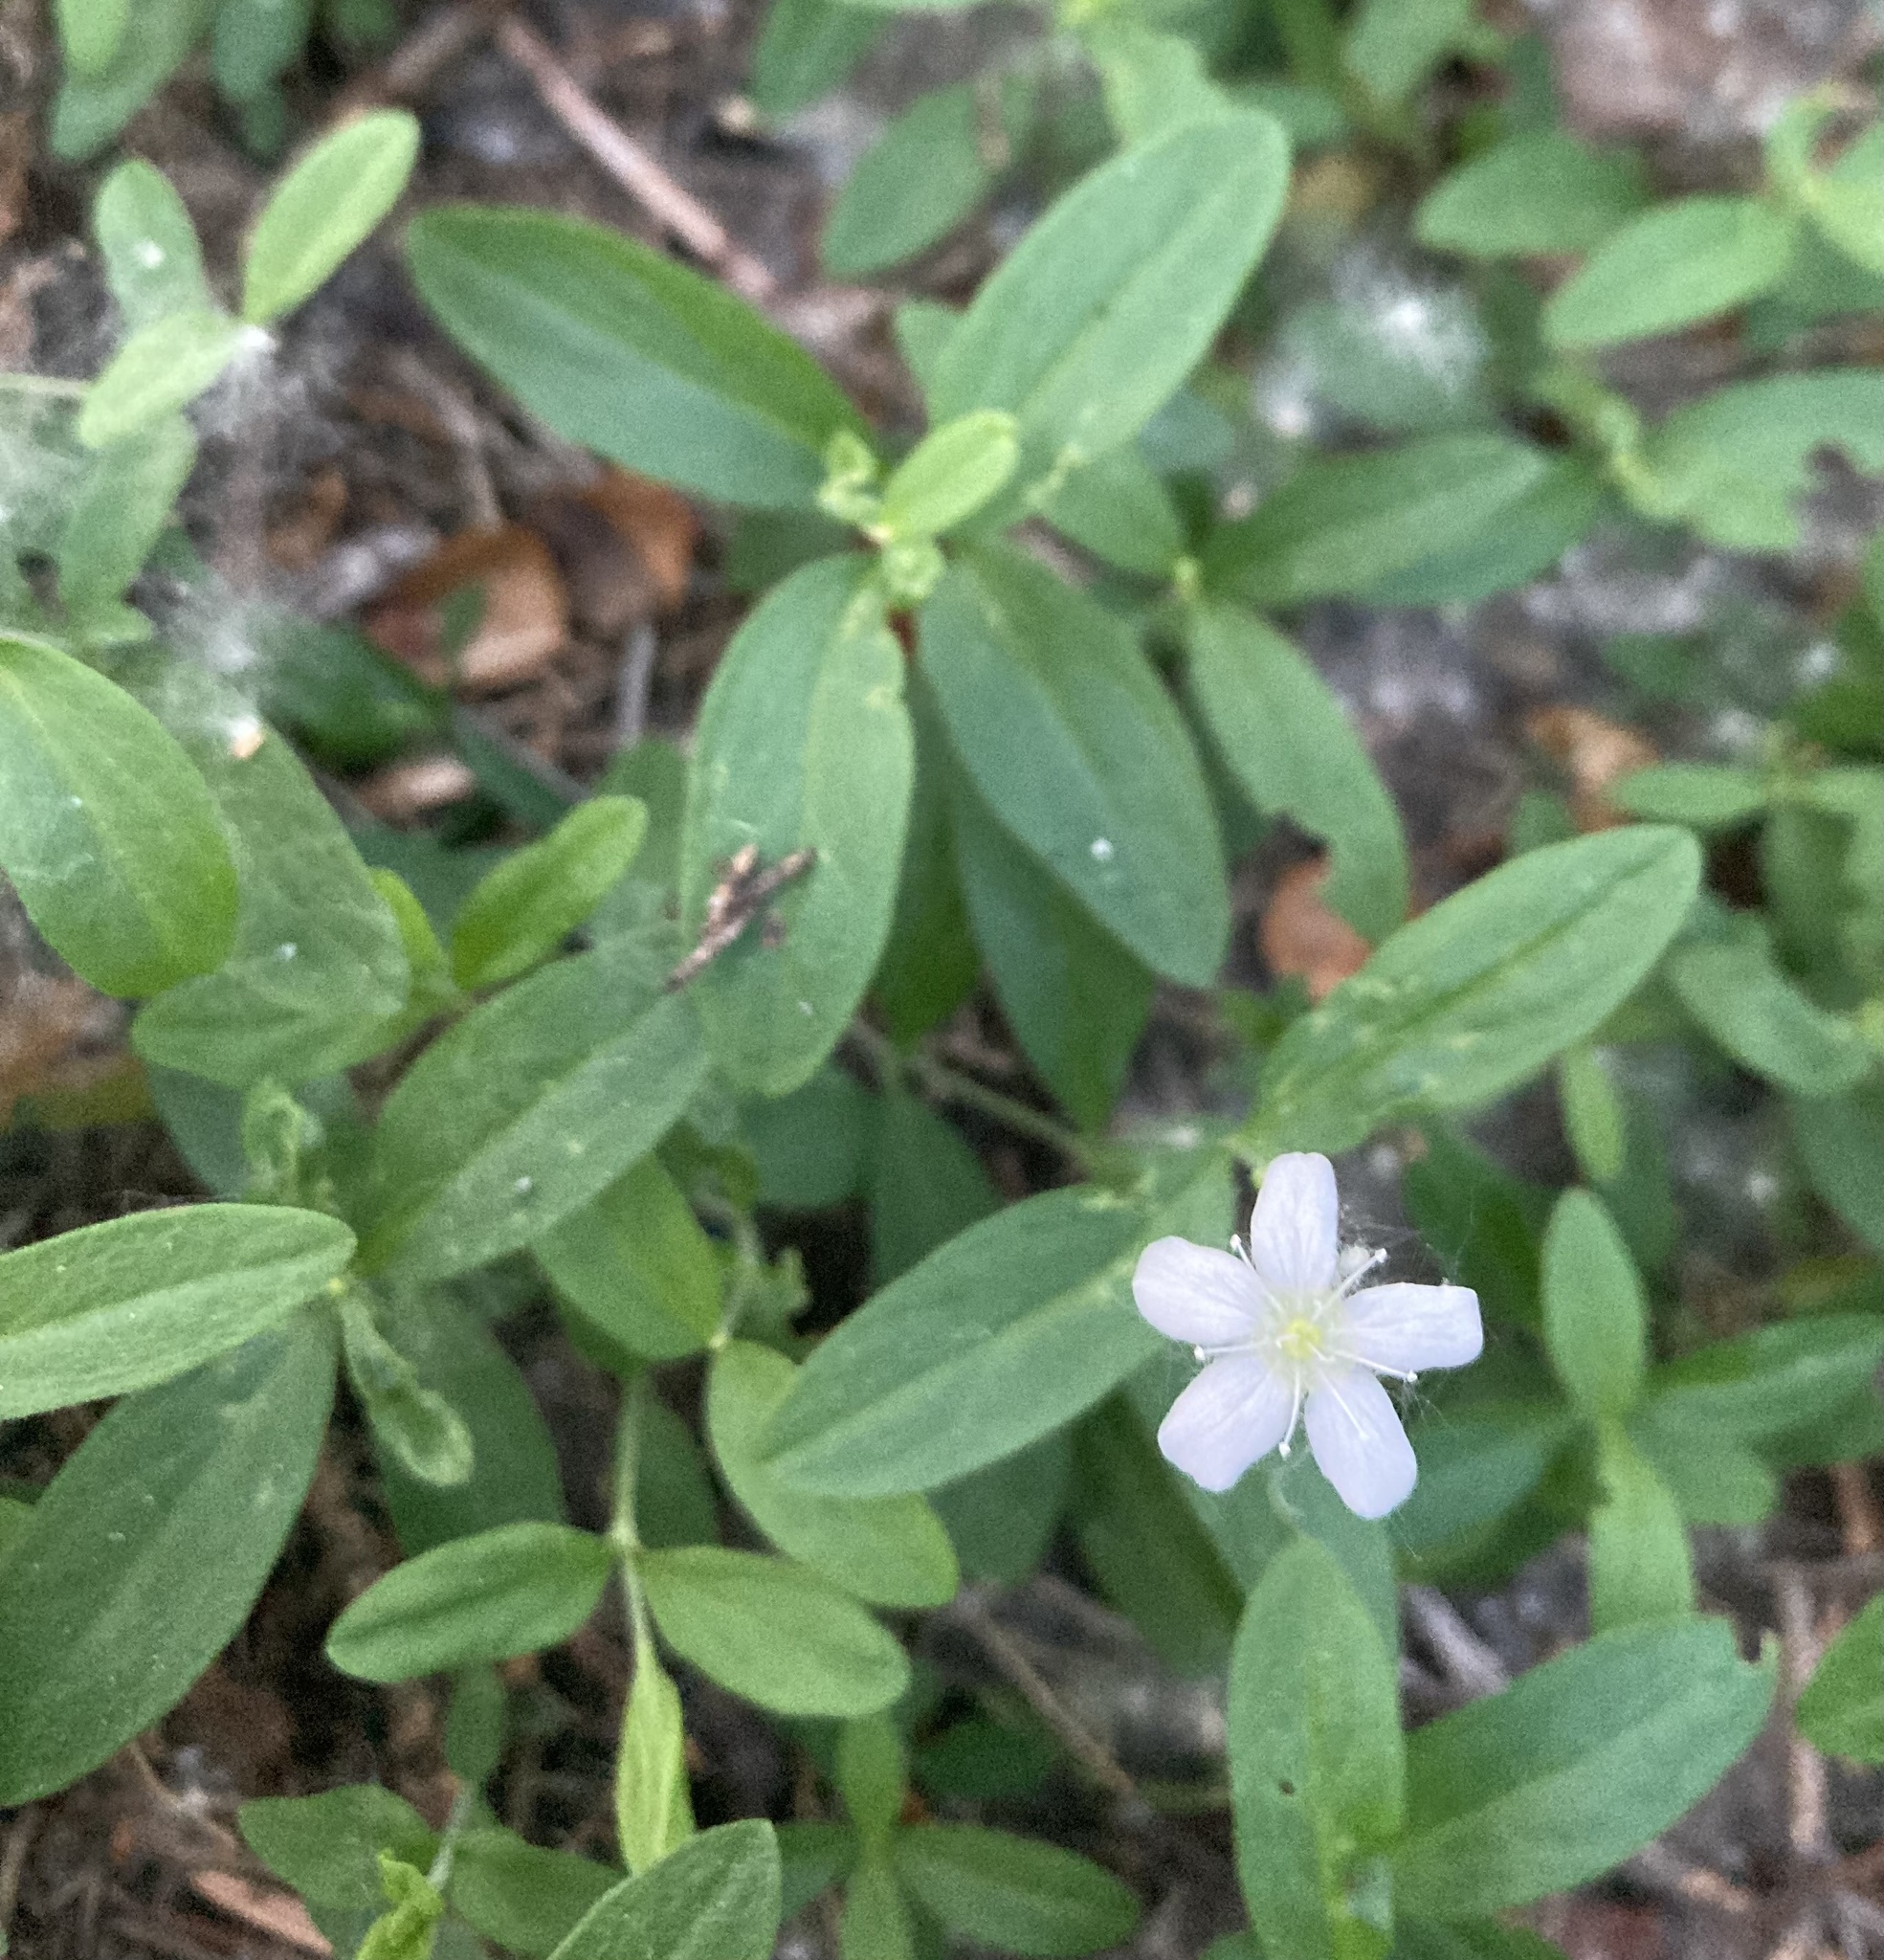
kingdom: Plantae
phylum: Tracheophyta
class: Magnoliopsida
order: Caryophyllales
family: Caryophyllaceae
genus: Moehringia
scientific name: Moehringia lateriflora
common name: Blunt-leaved sandwort
